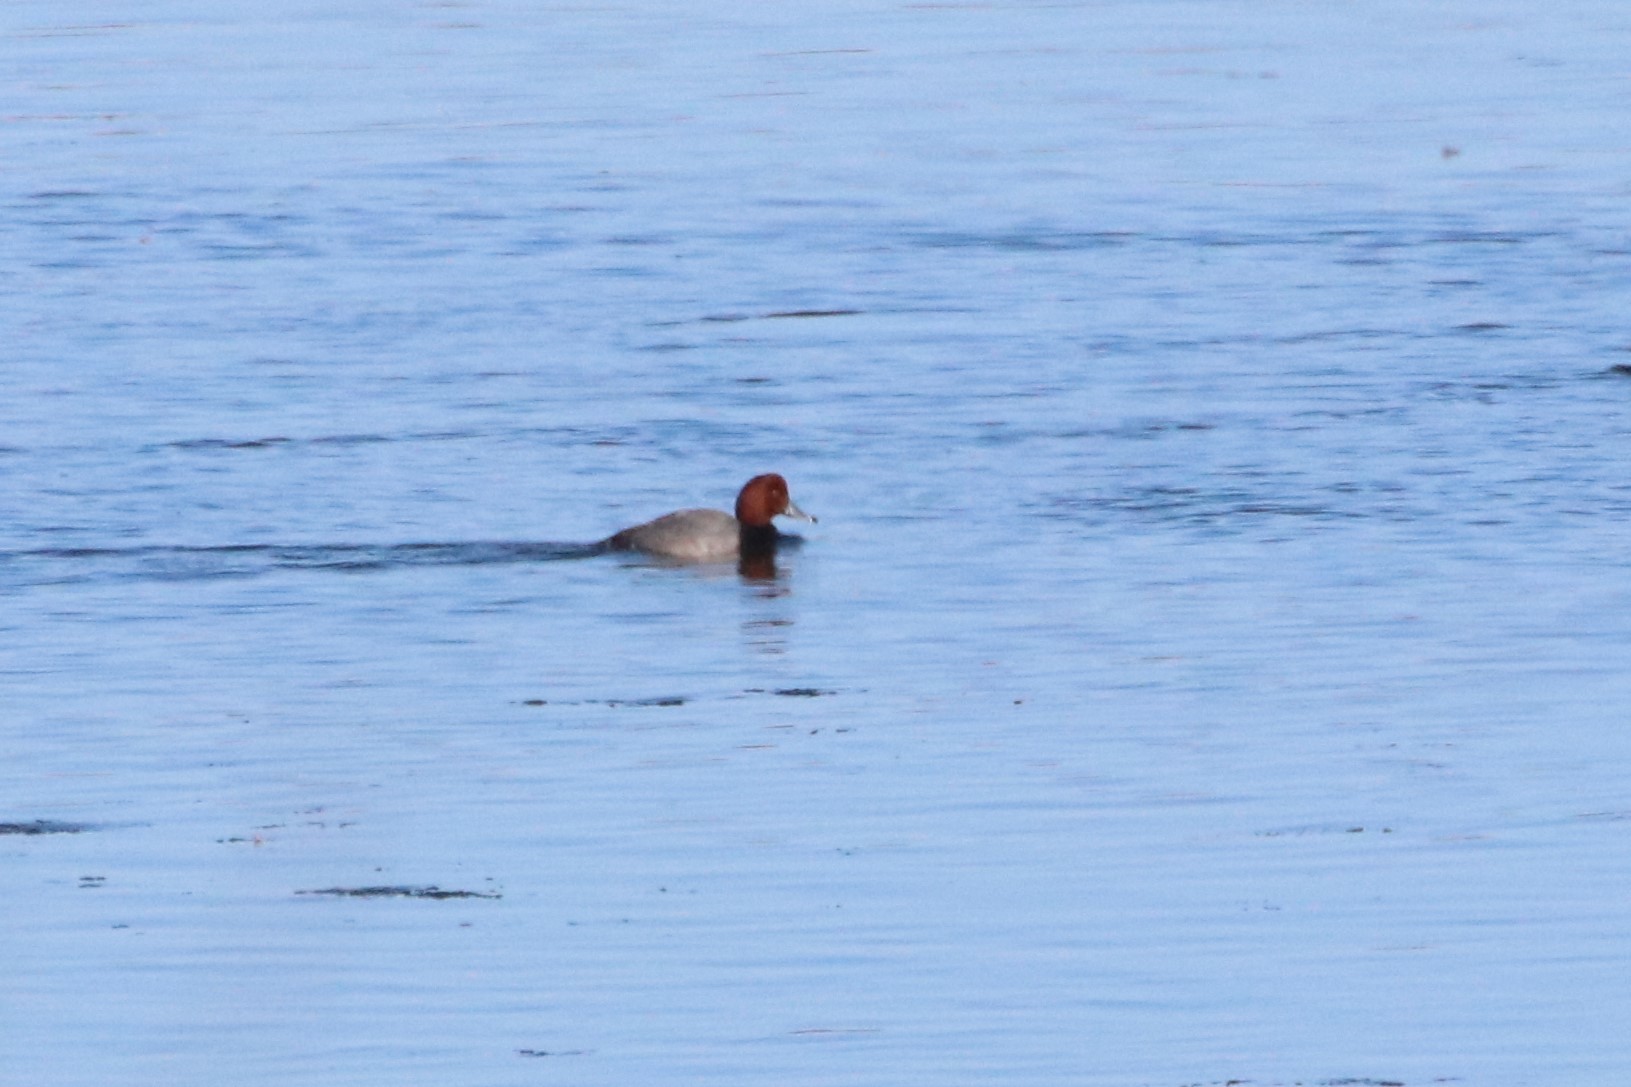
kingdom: Animalia
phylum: Chordata
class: Aves
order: Anseriformes
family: Anatidae
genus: Aythya
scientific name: Aythya americana
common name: Redhead
